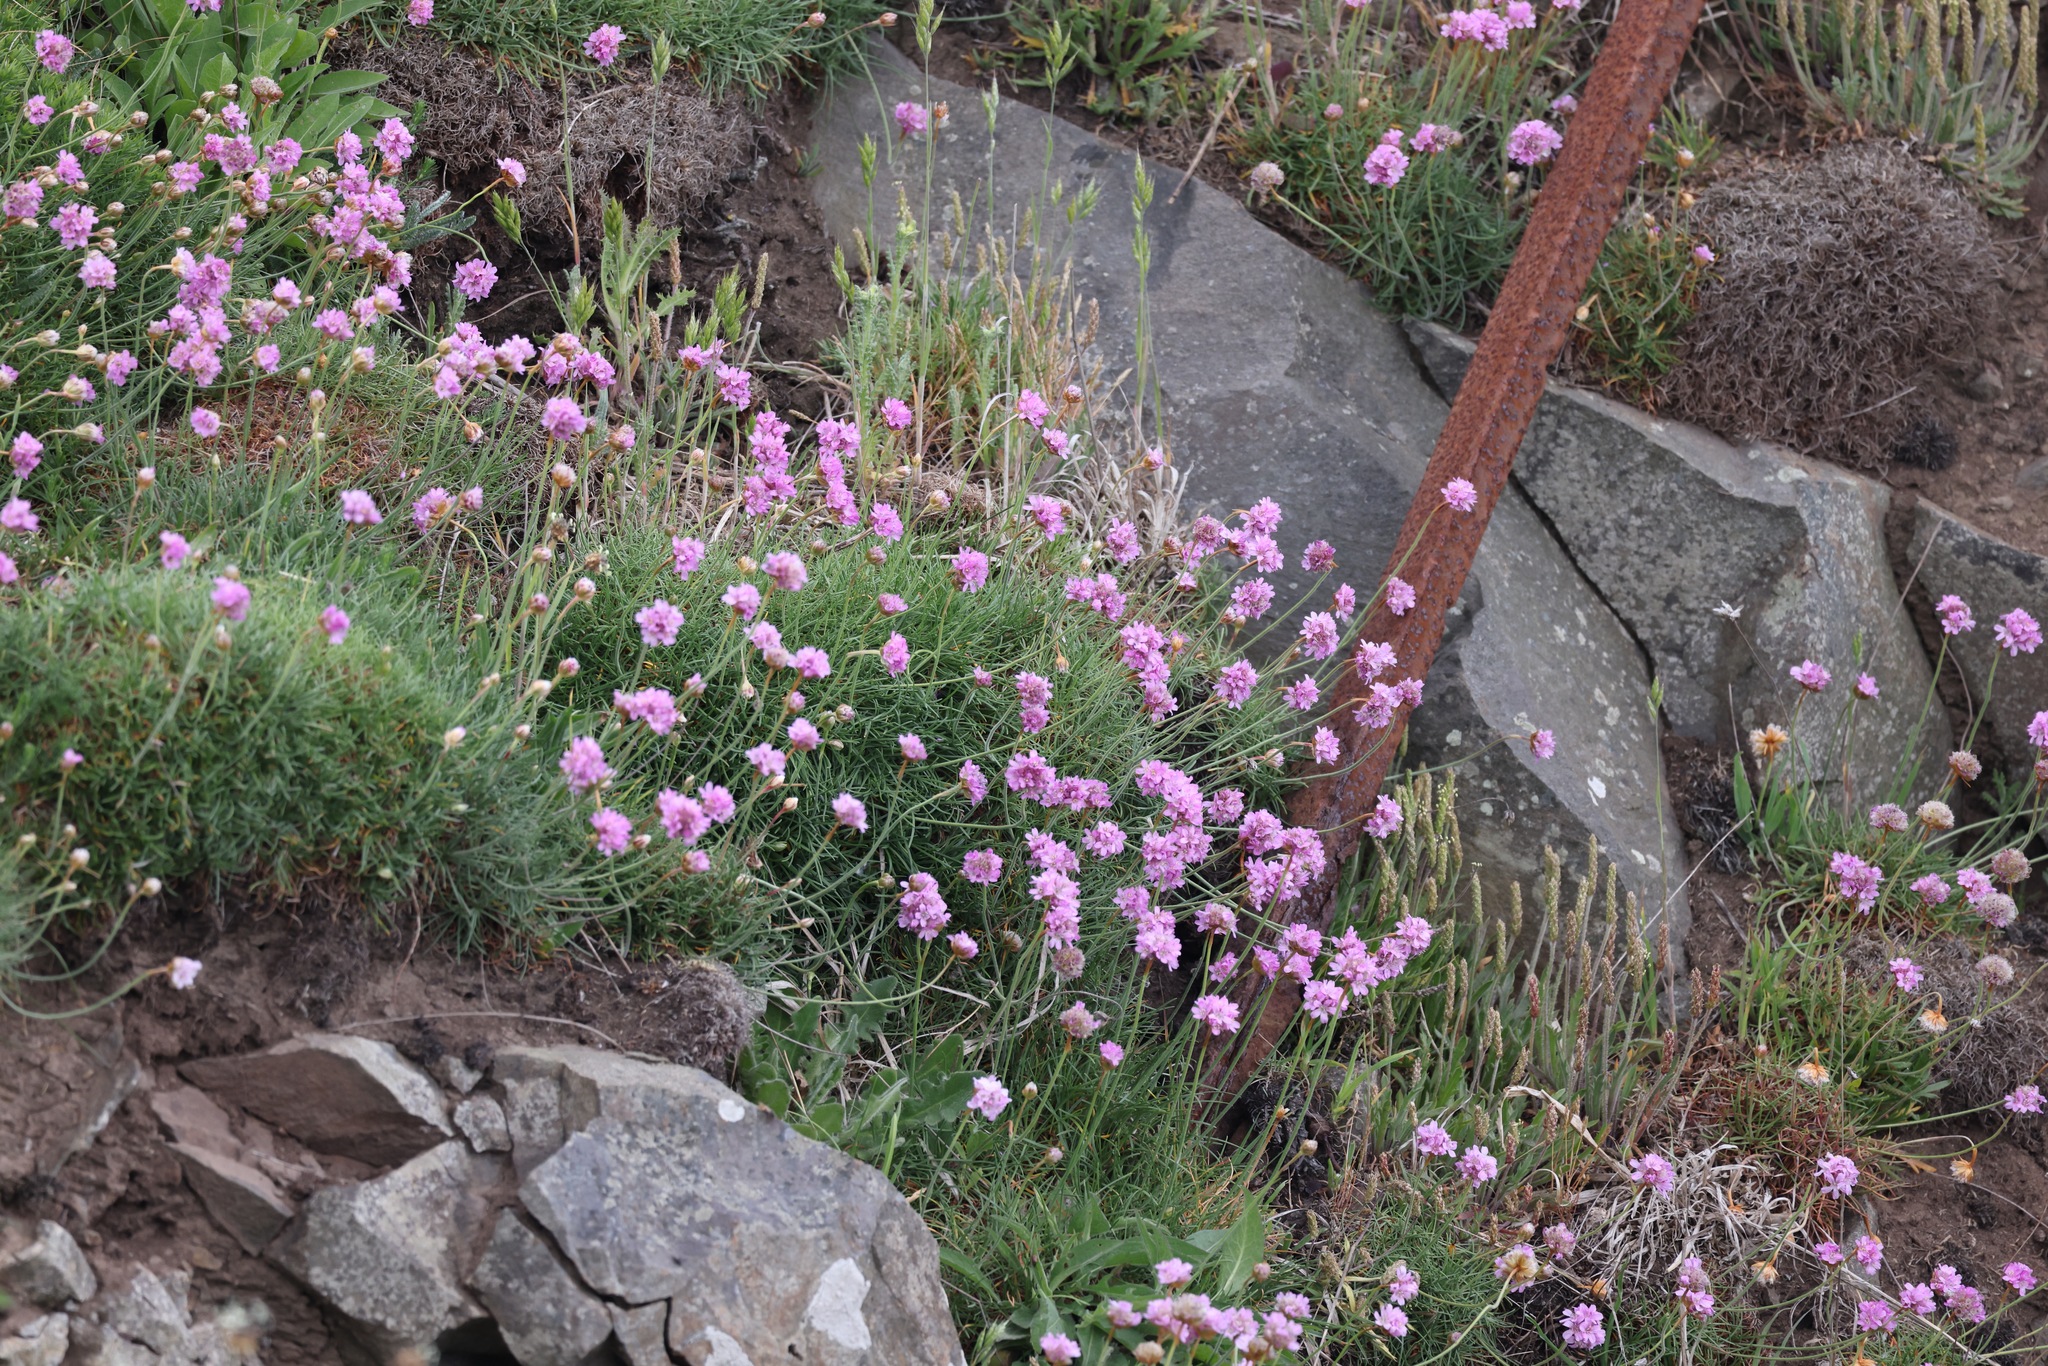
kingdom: Plantae
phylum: Tracheophyta
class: Magnoliopsida
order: Caryophyllales
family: Plumbaginaceae
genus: Armeria
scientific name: Armeria maritima
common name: Thrift
